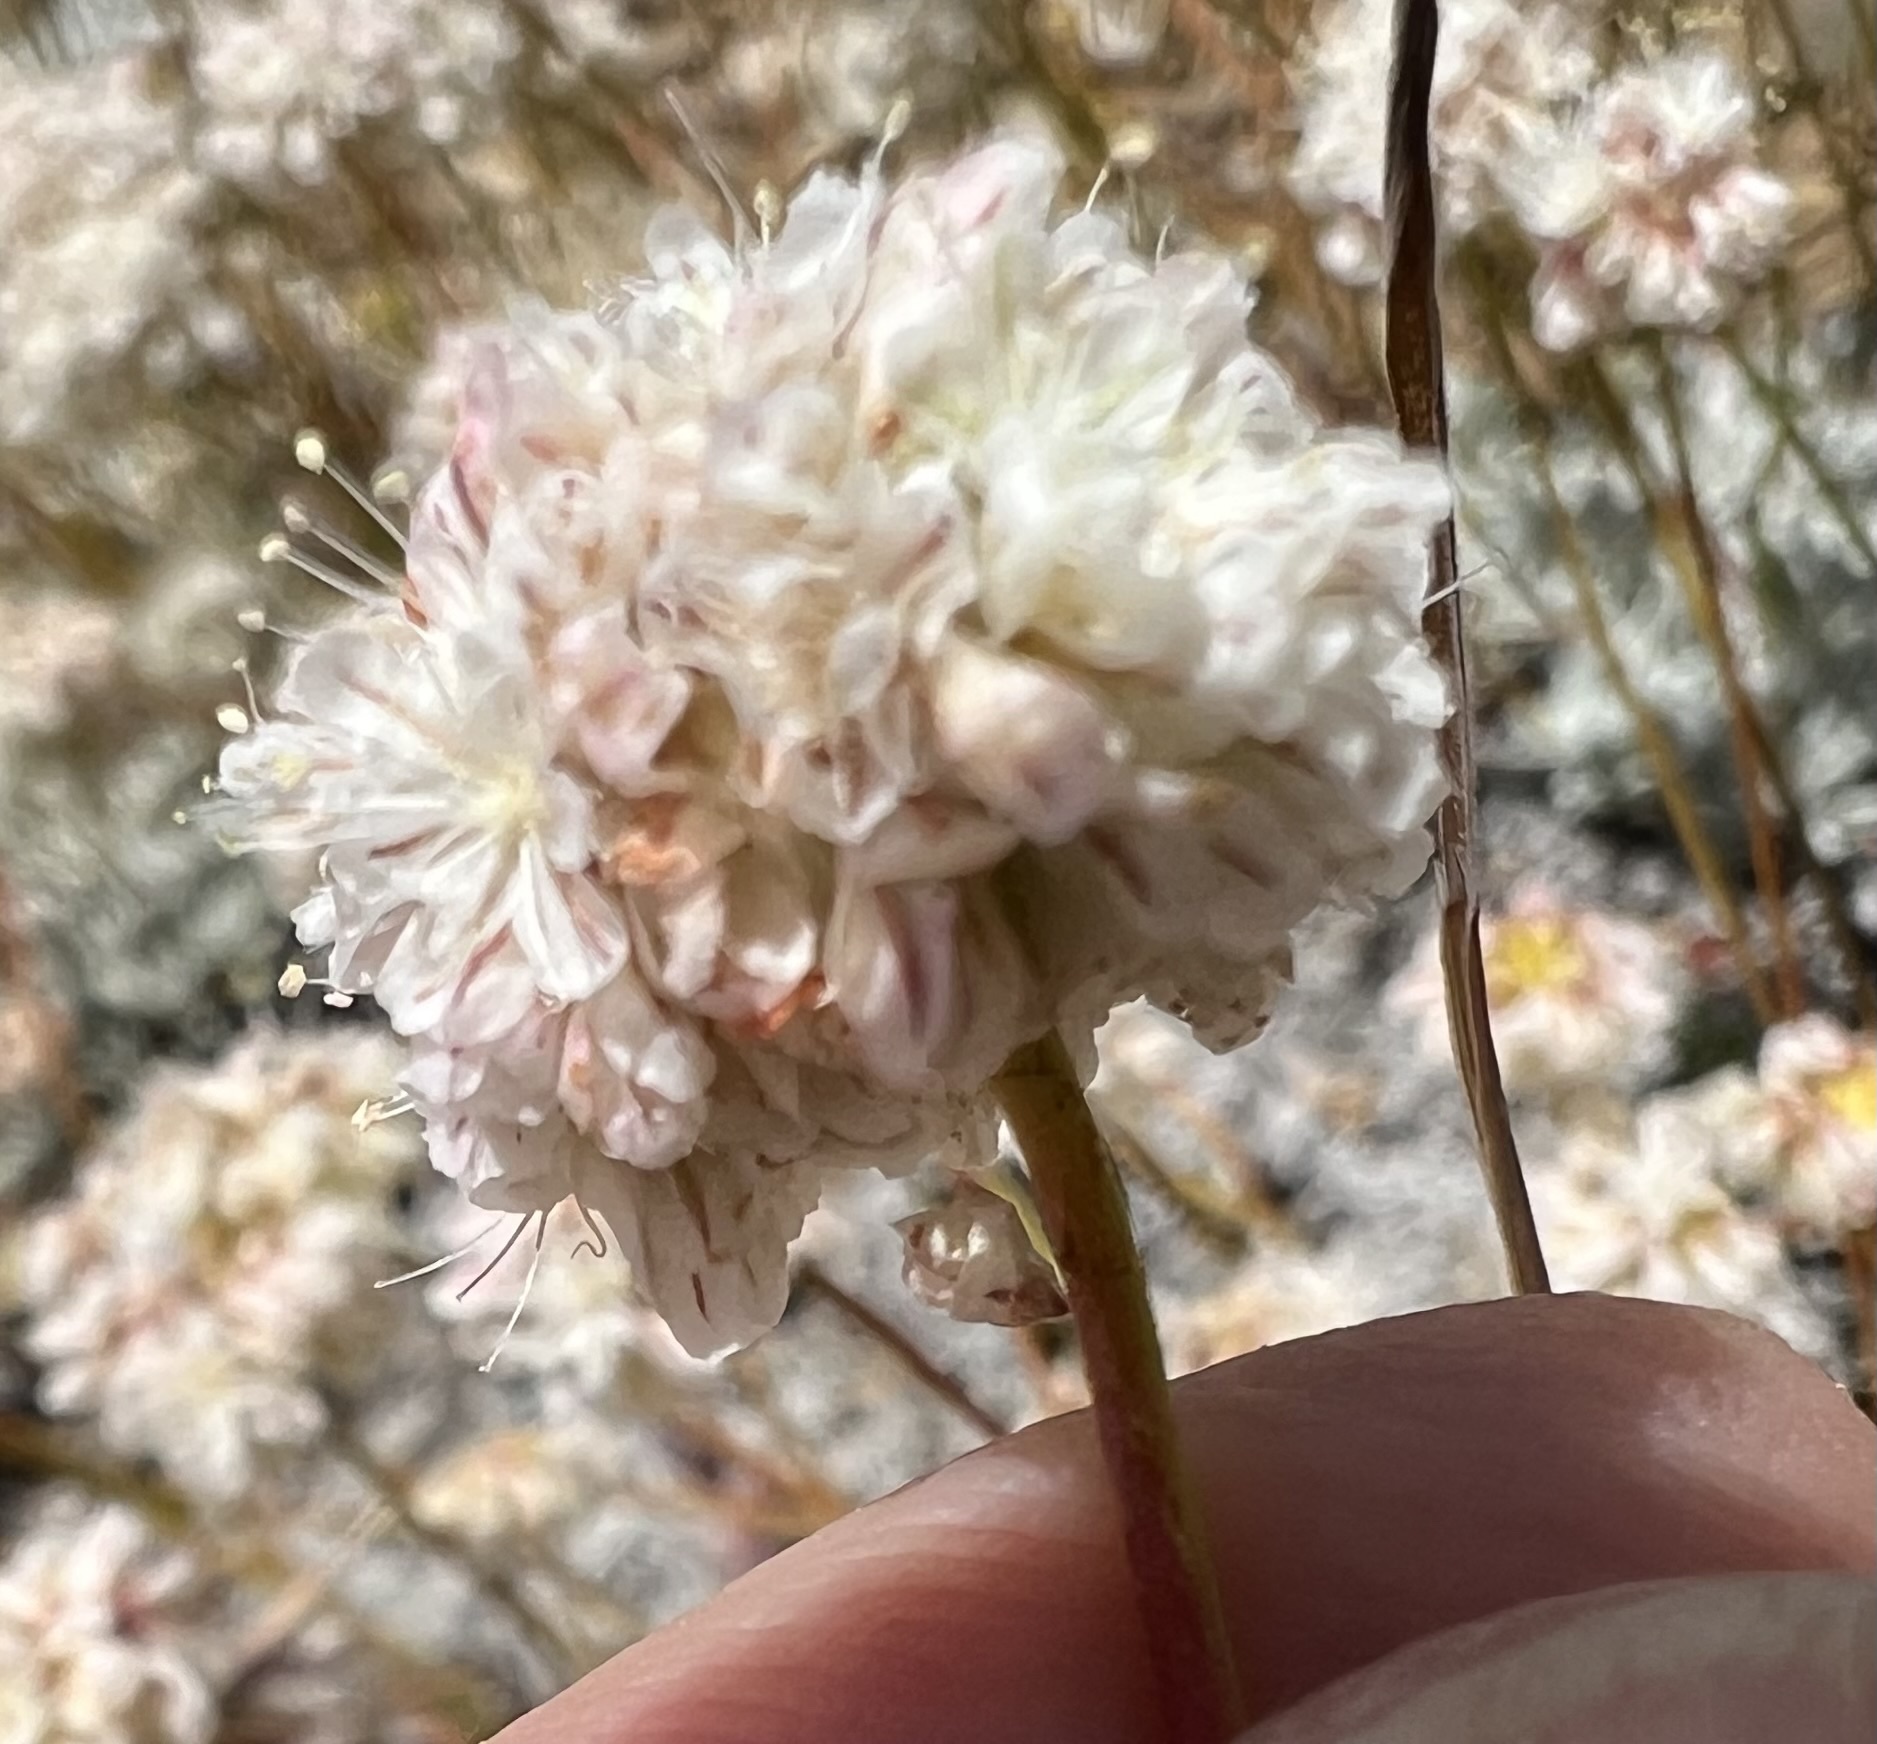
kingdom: Plantae
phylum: Tracheophyta
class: Magnoliopsida
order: Caryophyllales
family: Polygonaceae
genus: Eriogonum
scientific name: Eriogonum kennedyi
